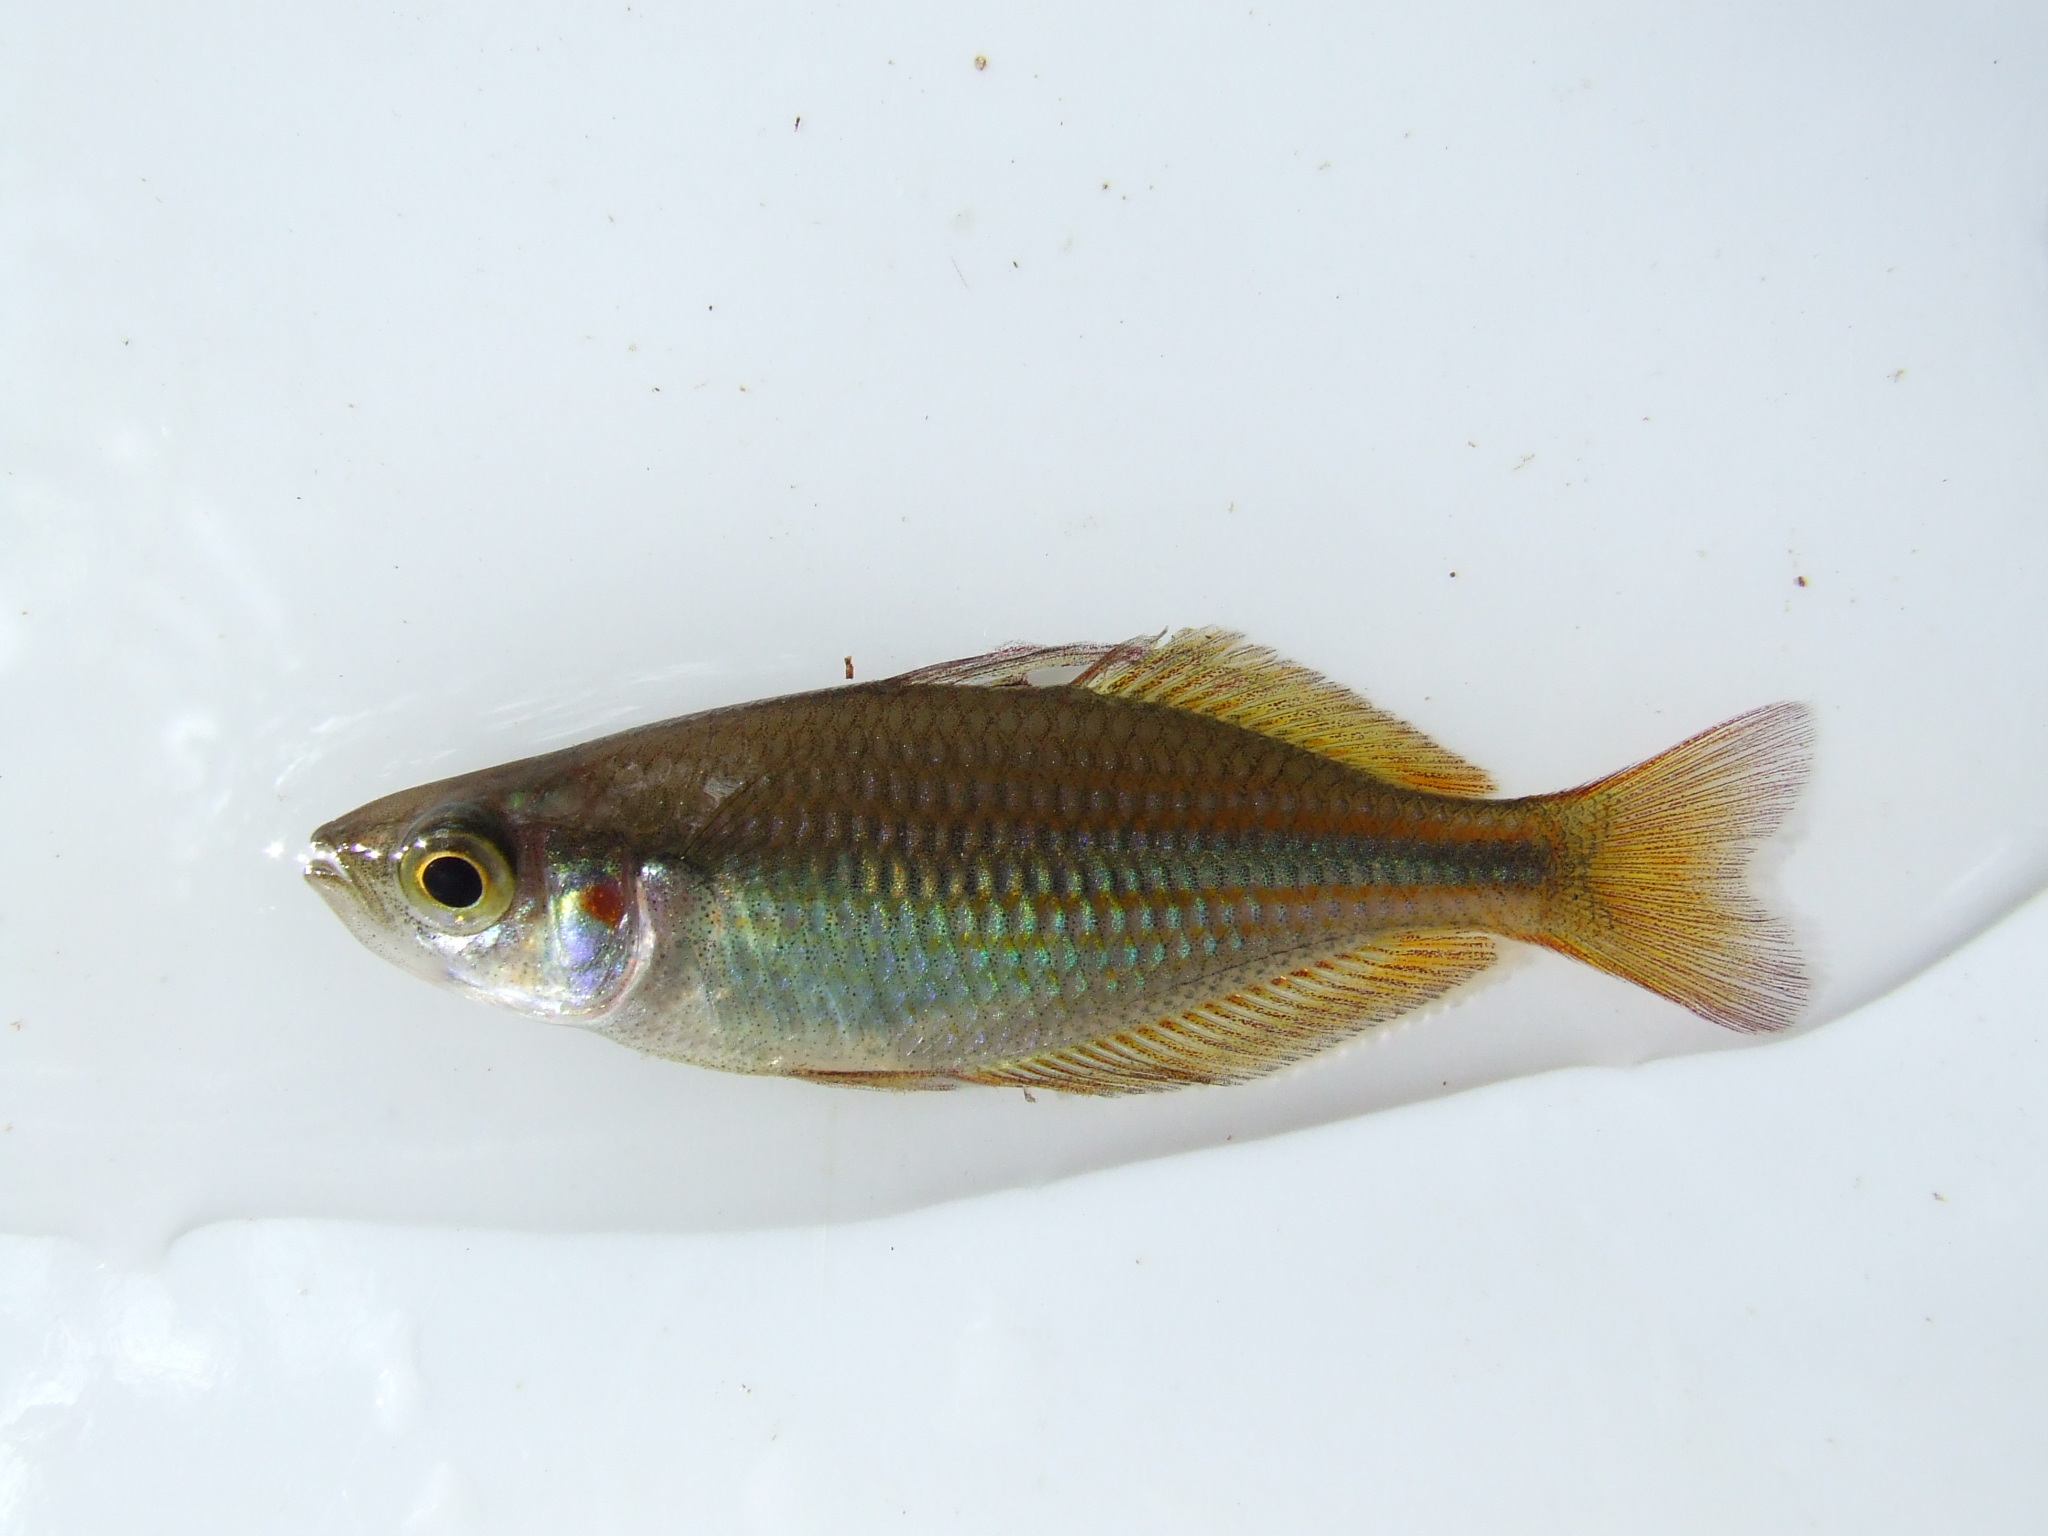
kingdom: Animalia
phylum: Chordata
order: Atheriniformes
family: Melanotaeniidae
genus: Melanotaenia
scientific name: Melanotaenia trifasciata
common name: Banded rainbowfish
